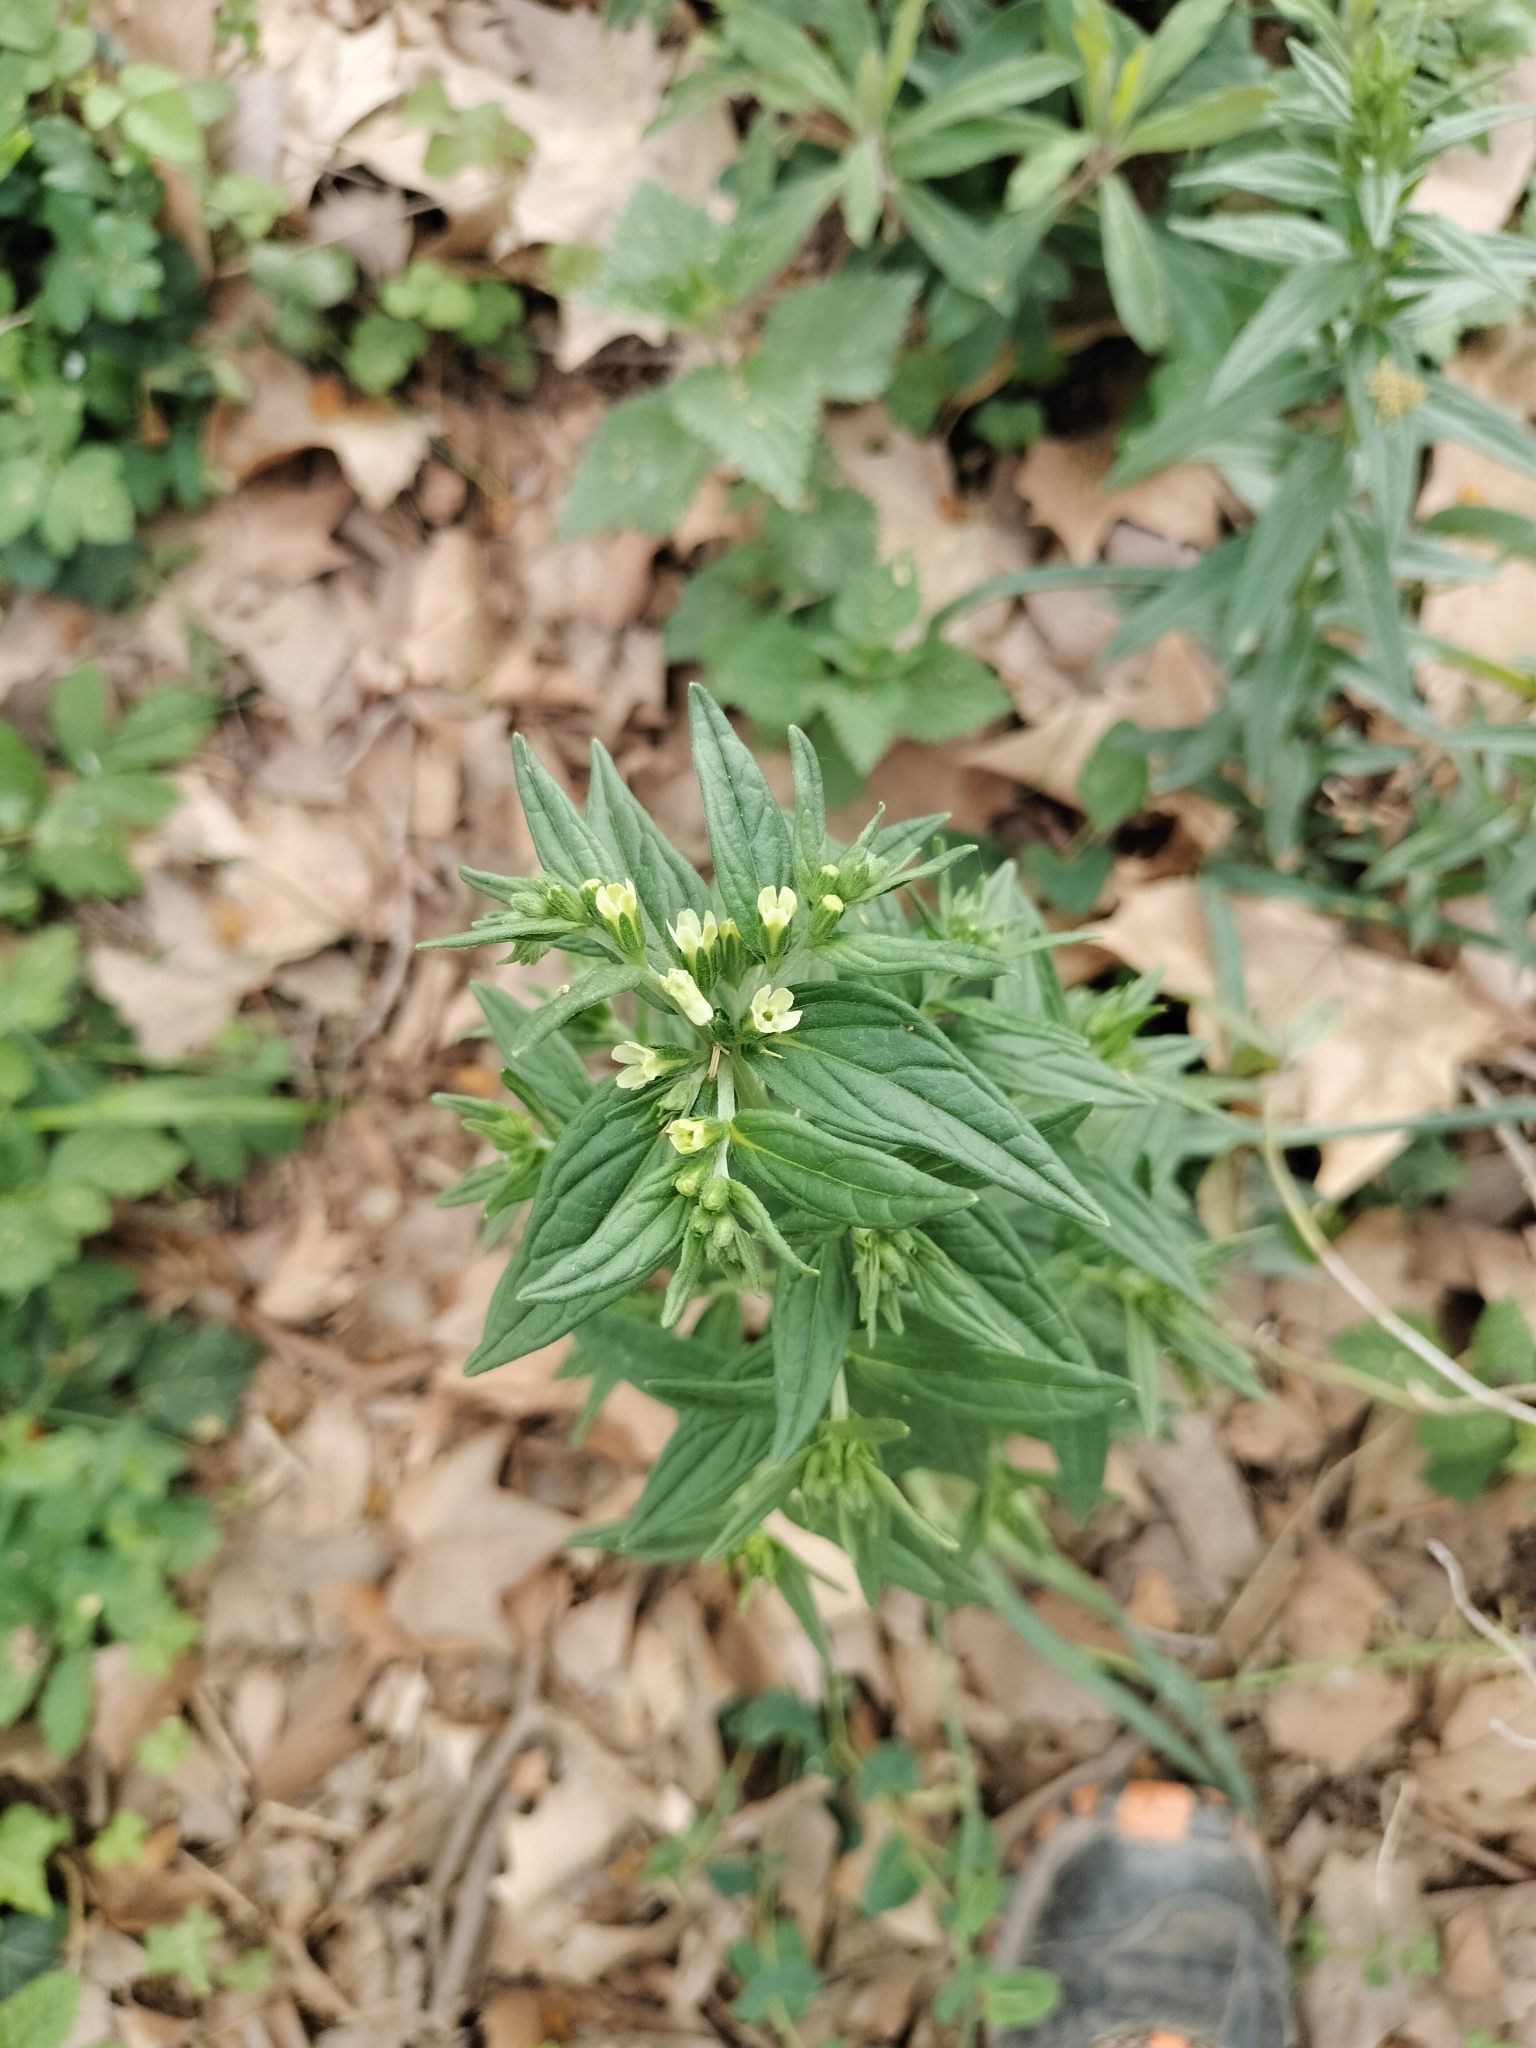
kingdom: Plantae
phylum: Tracheophyta
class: Magnoliopsida
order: Boraginales
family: Boraginaceae
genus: Lithospermum
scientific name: Lithospermum officinale
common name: Common gromwell
